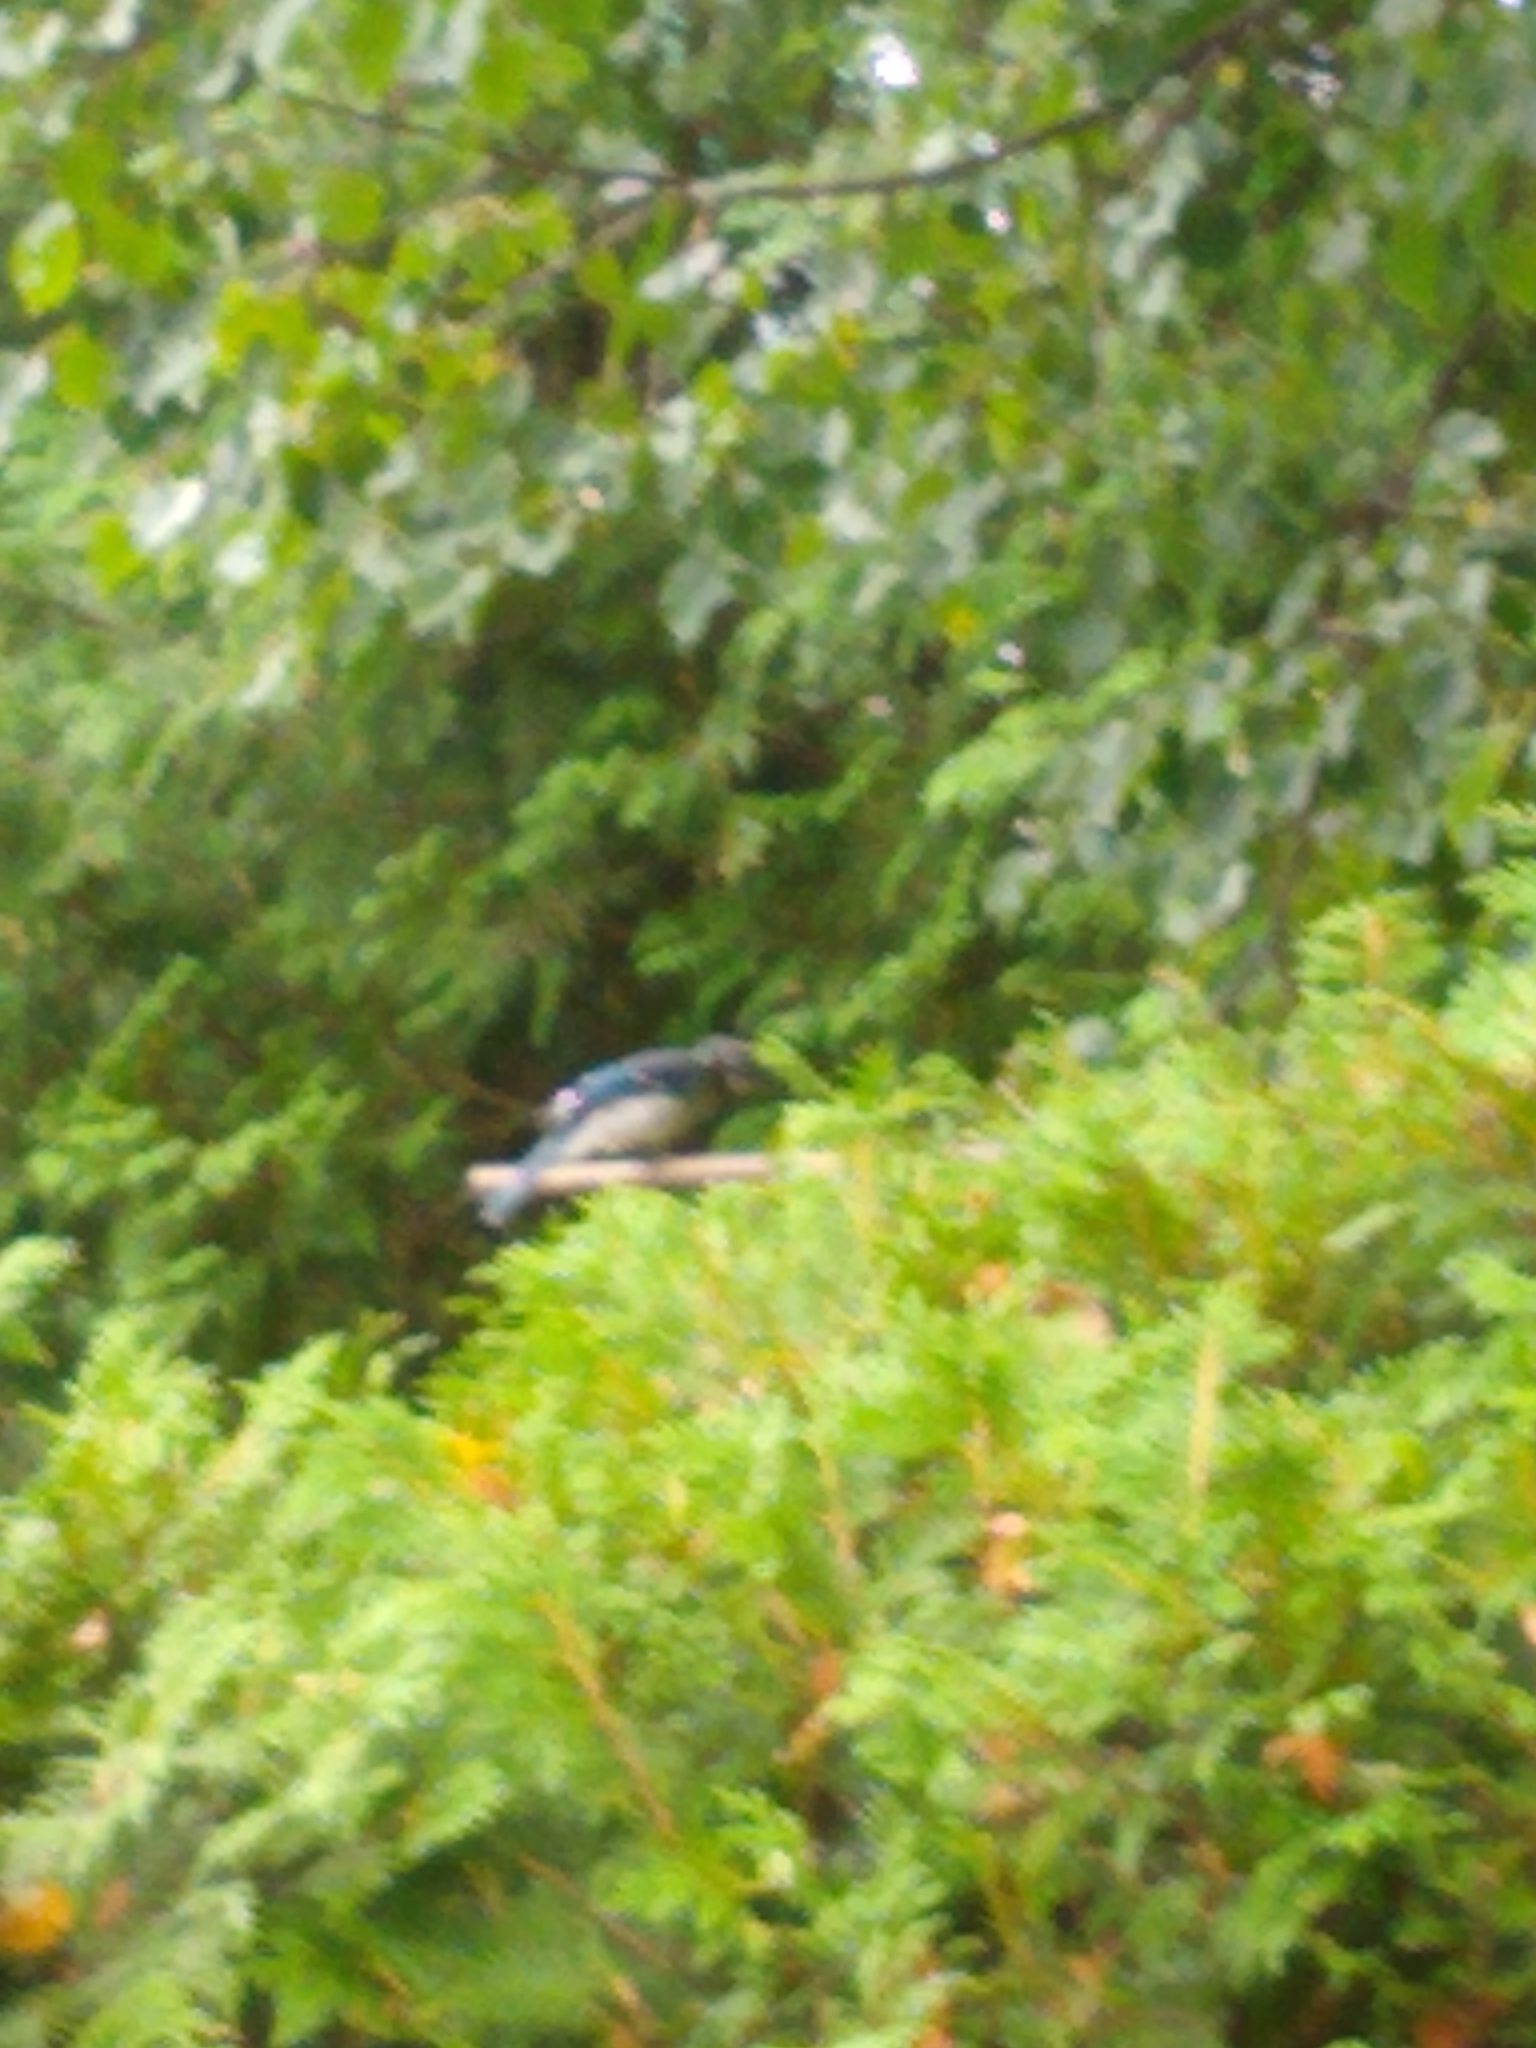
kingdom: Animalia
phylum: Chordata
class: Aves
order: Passeriformes
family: Corvidae
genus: Cyanocitta
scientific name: Cyanocitta cristata
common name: Blue jay
